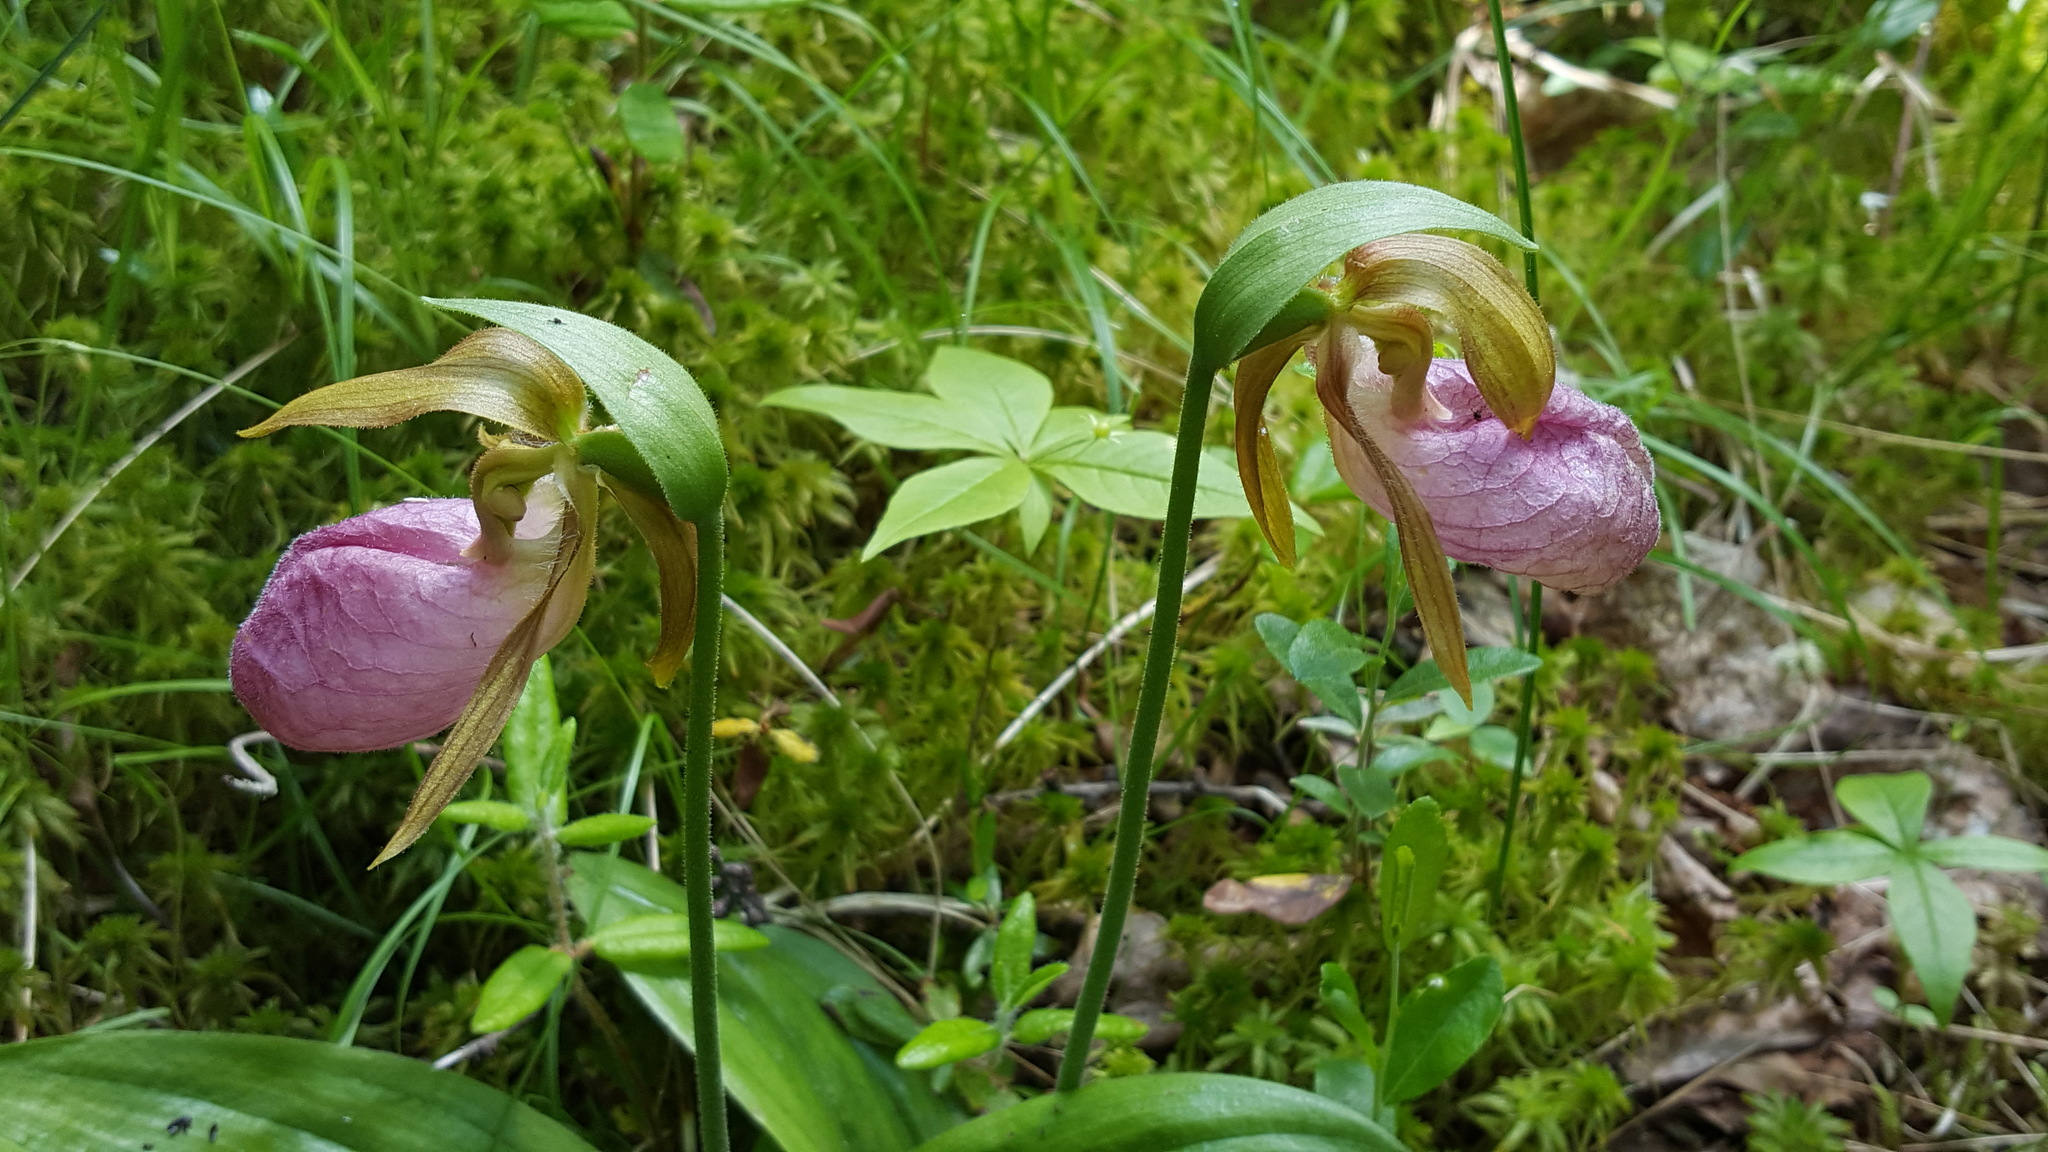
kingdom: Plantae
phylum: Tracheophyta
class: Liliopsida
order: Asparagales
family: Orchidaceae
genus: Cypripedium
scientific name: Cypripedium acaule
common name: Pink lady's-slipper
